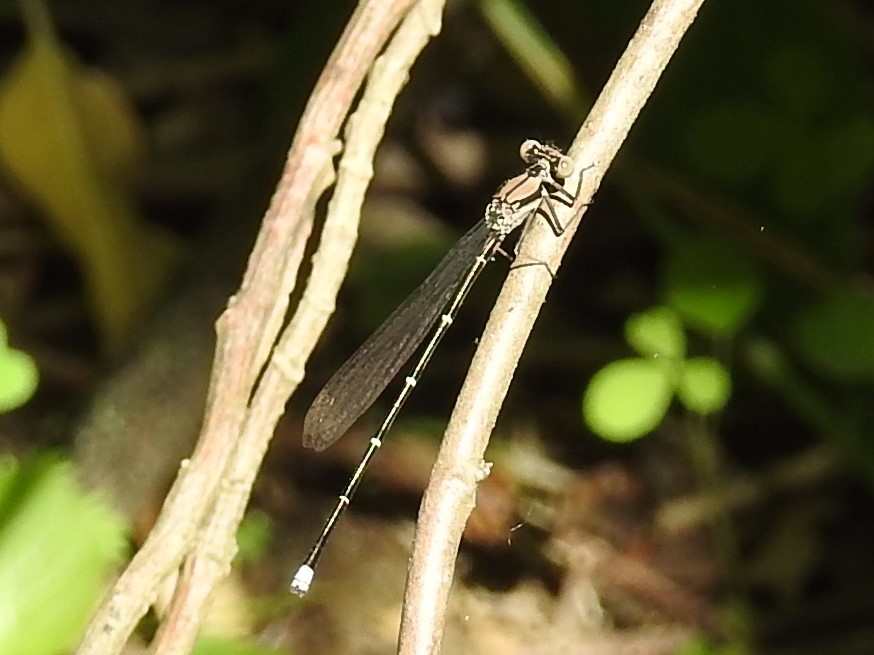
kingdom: Animalia
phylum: Arthropoda
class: Insecta
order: Odonata
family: Coenagrionidae
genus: Argia
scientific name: Argia tibialis
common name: Blue-tipped dancer
